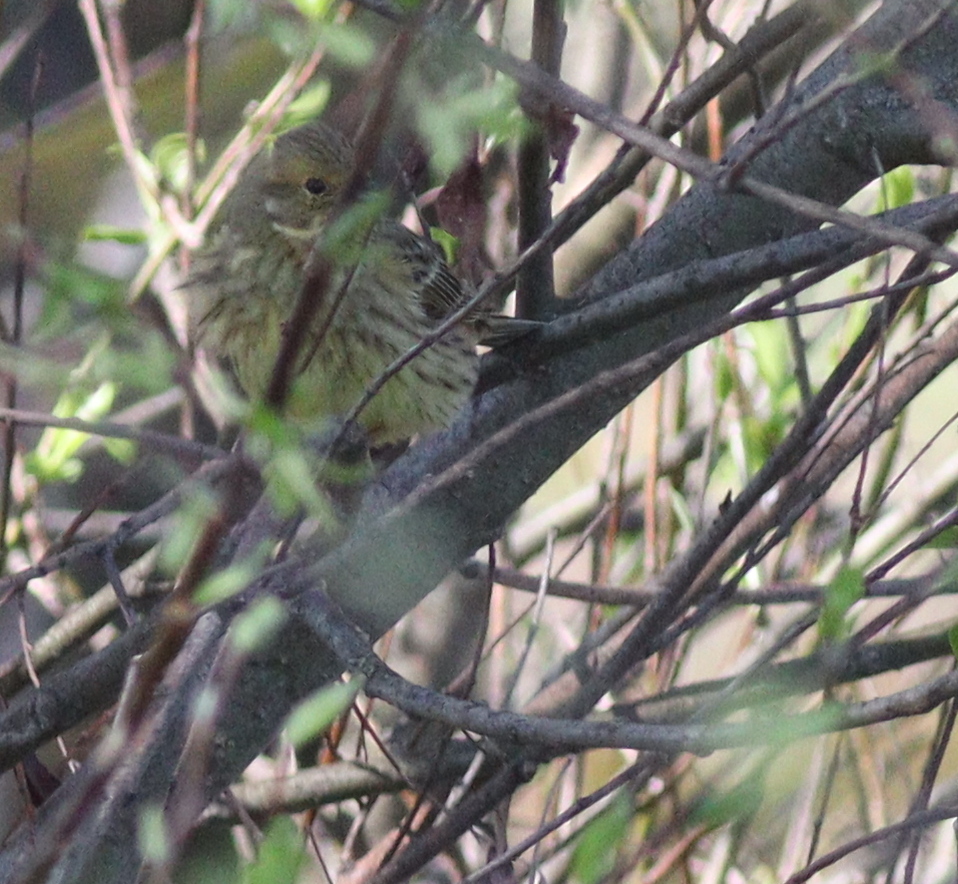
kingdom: Animalia
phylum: Chordata
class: Aves
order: Passeriformes
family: Emberizidae
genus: Emberiza
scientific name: Emberiza citrinella
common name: Yellowhammer
